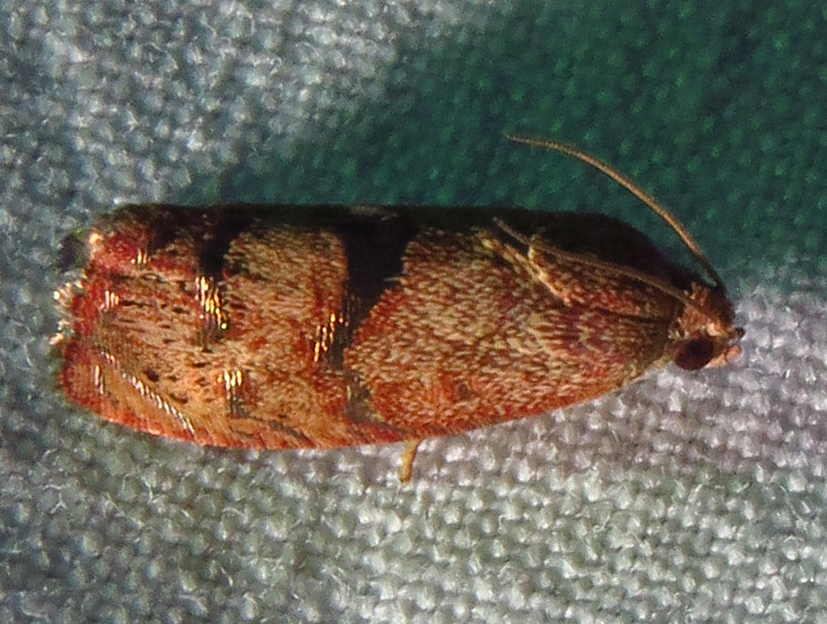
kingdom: Animalia
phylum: Arthropoda
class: Insecta
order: Lepidoptera
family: Tortricidae
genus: Cydia
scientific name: Cydia latiferreana
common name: Filbertworm moth
